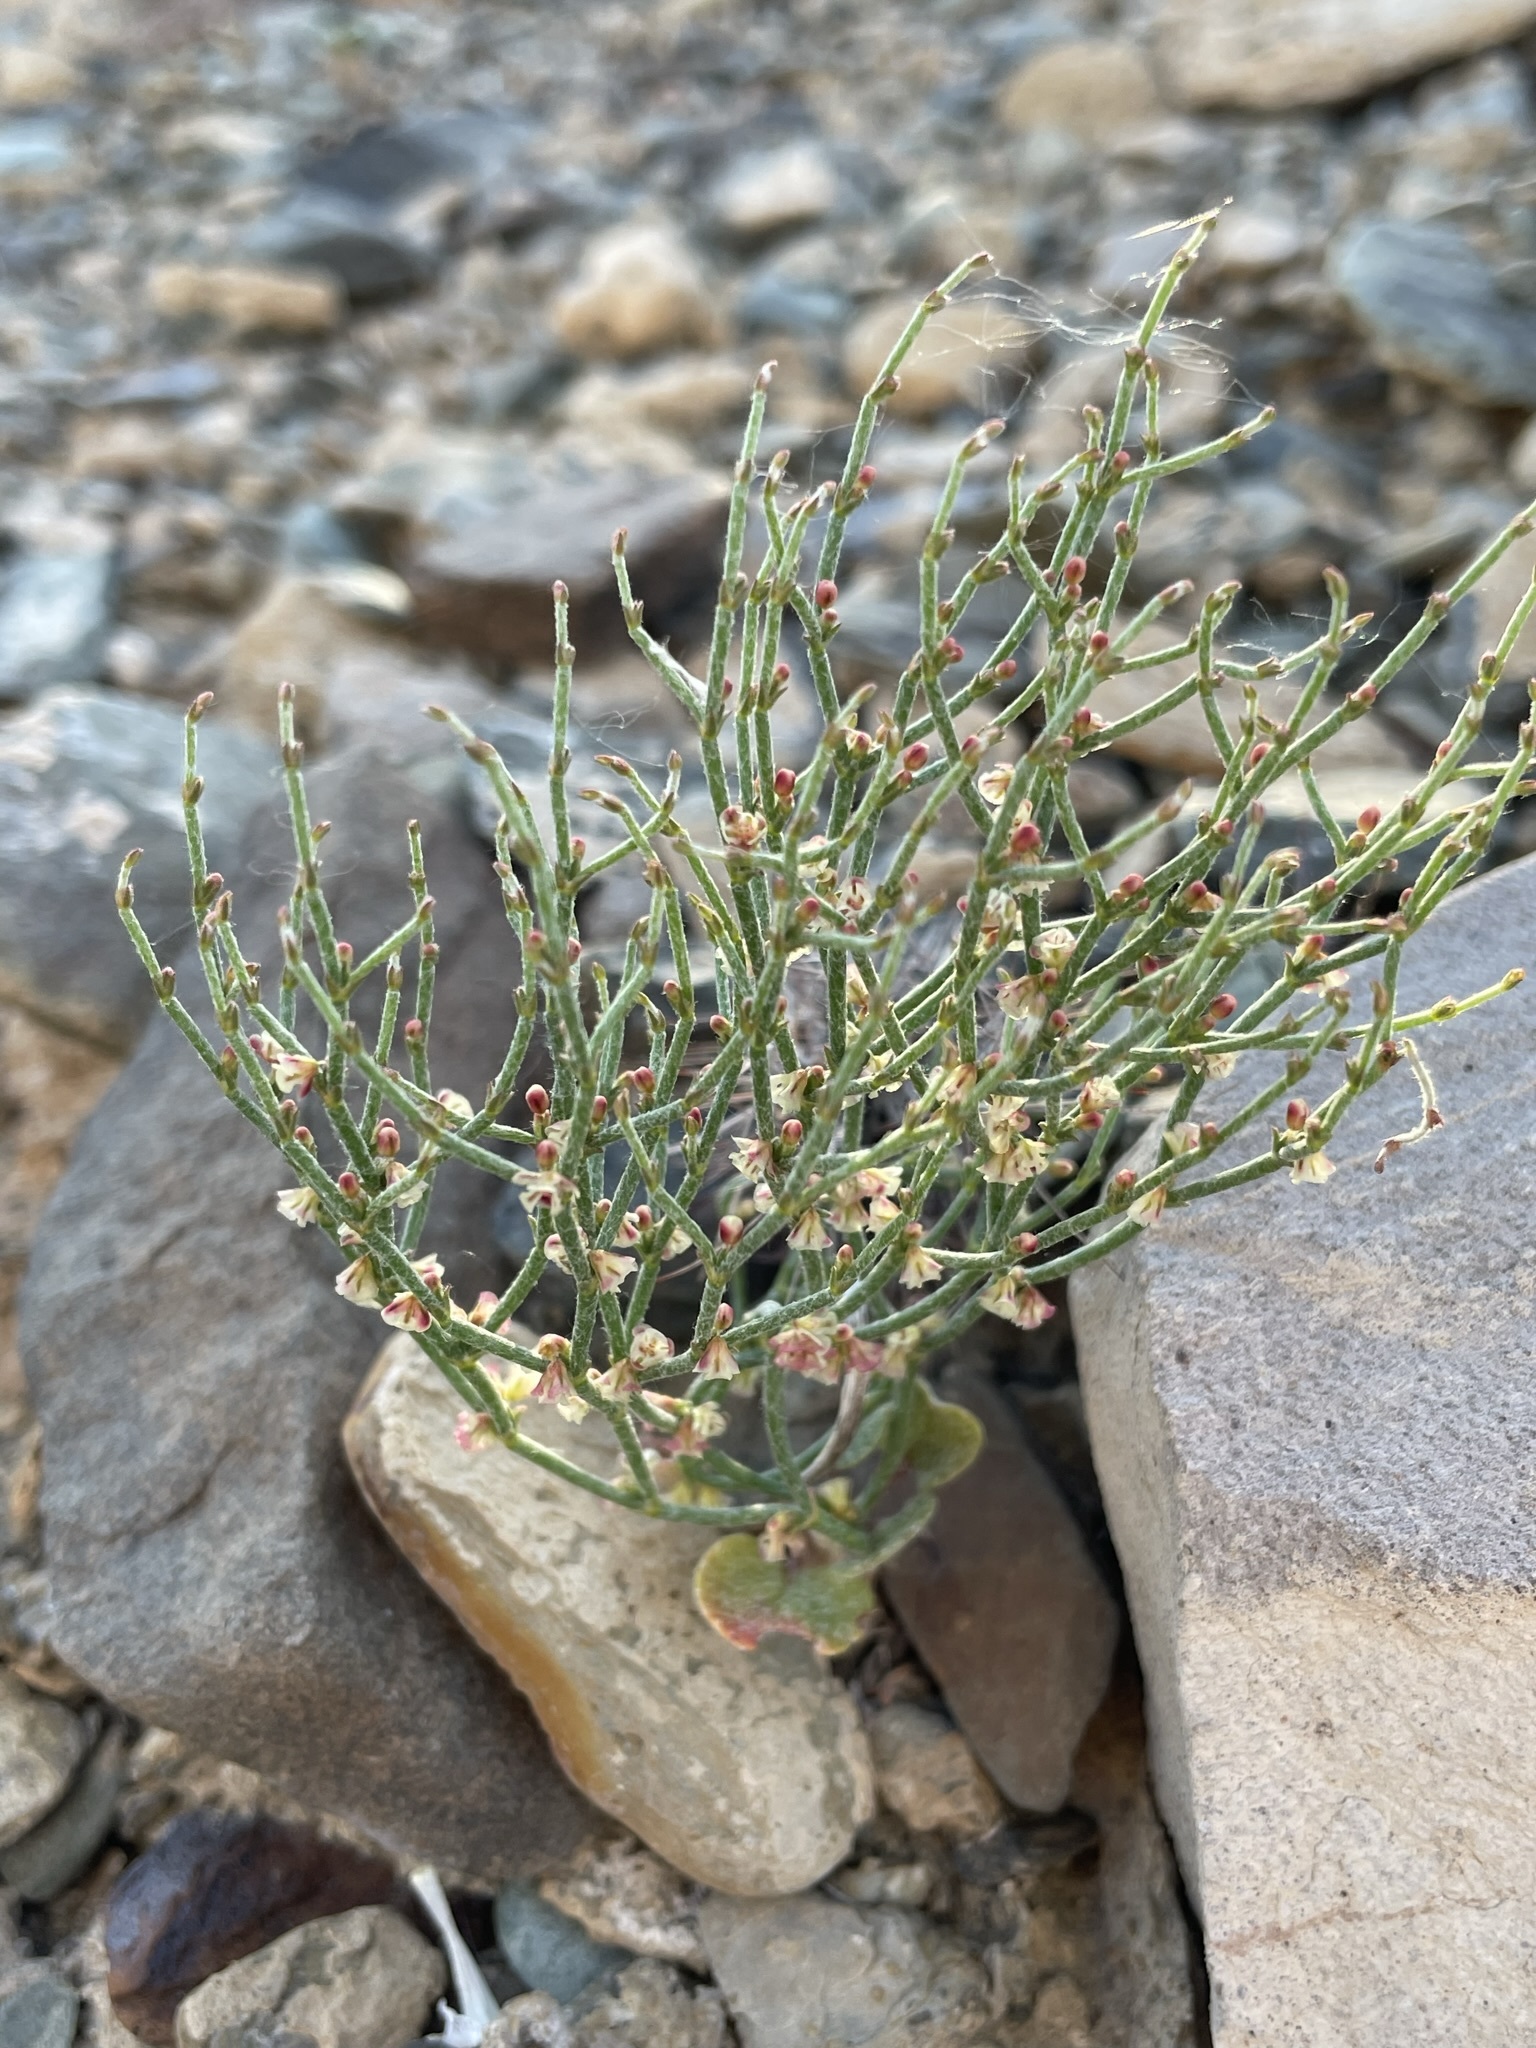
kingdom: Plantae
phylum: Tracheophyta
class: Magnoliopsida
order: Caryophyllales
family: Polygonaceae
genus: Eriogonum
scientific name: Eriogonum nidularium
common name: Bird's-nest wild buckwheat
